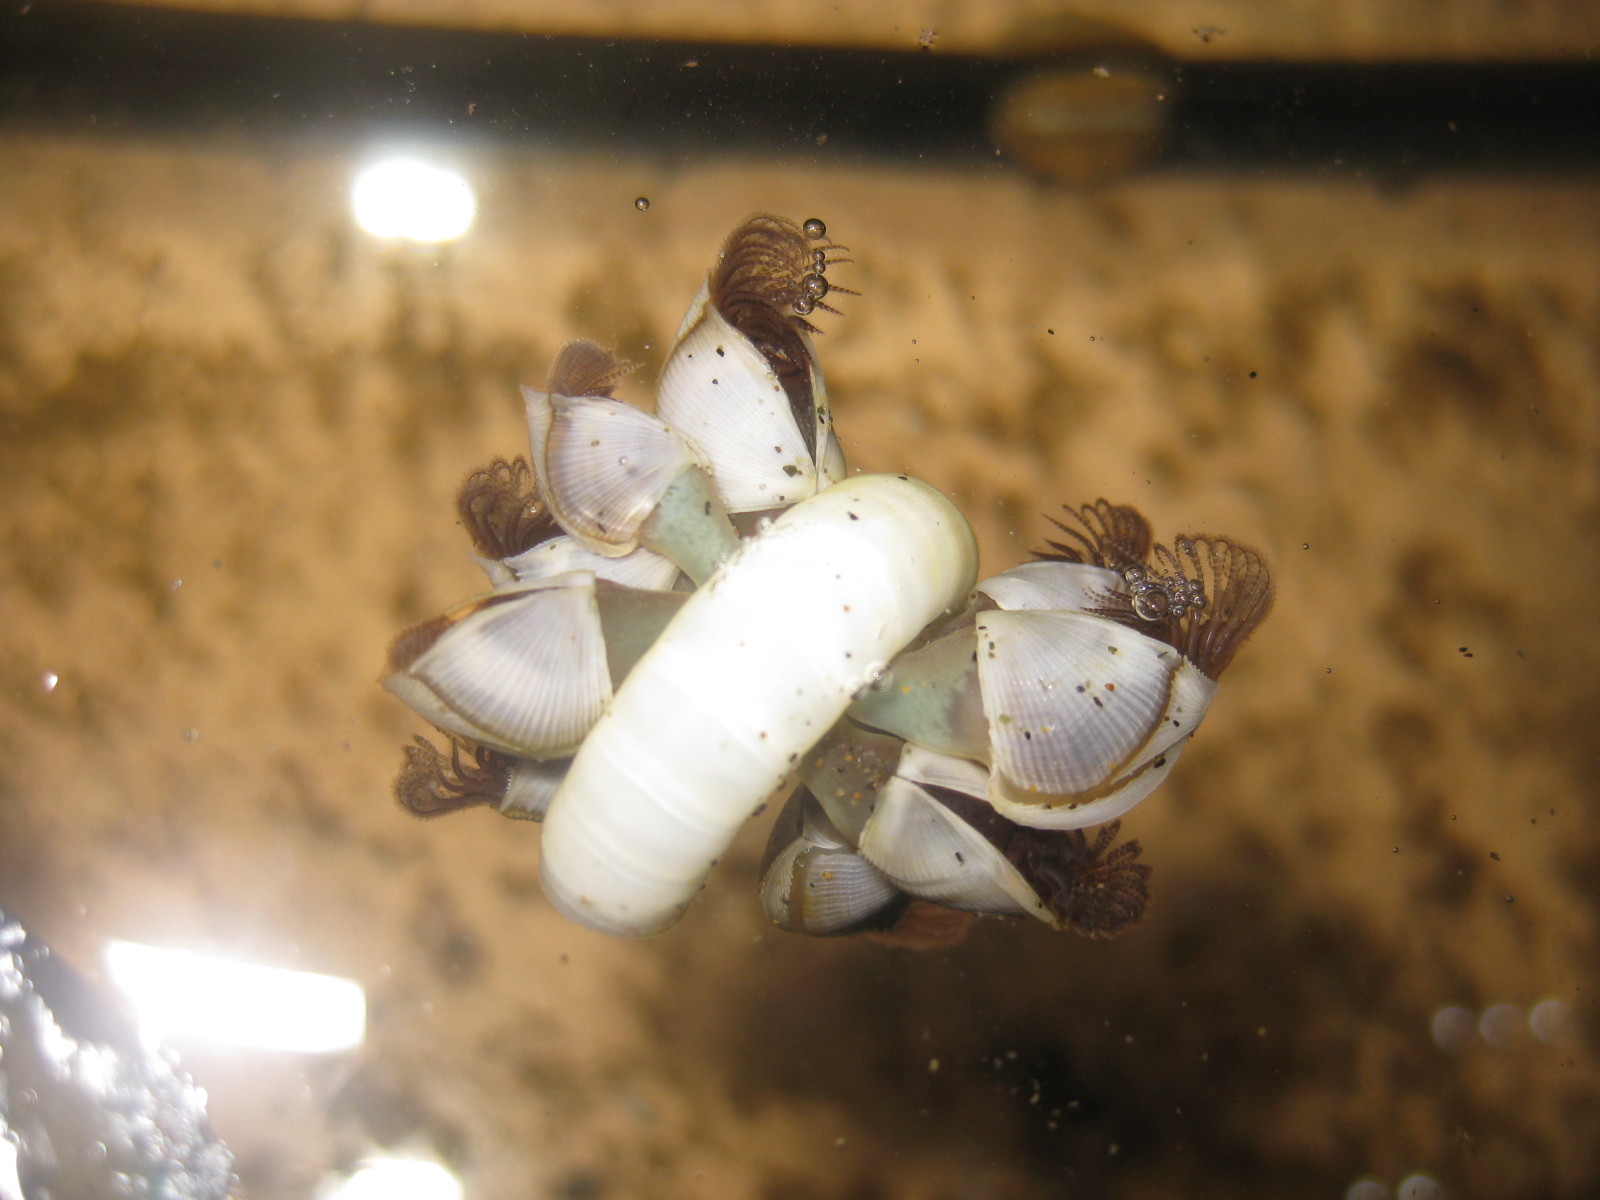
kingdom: Animalia
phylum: Arthropoda
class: Maxillopoda
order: Pedunculata
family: Lepadidae
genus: Lepas
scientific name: Lepas pectinata
